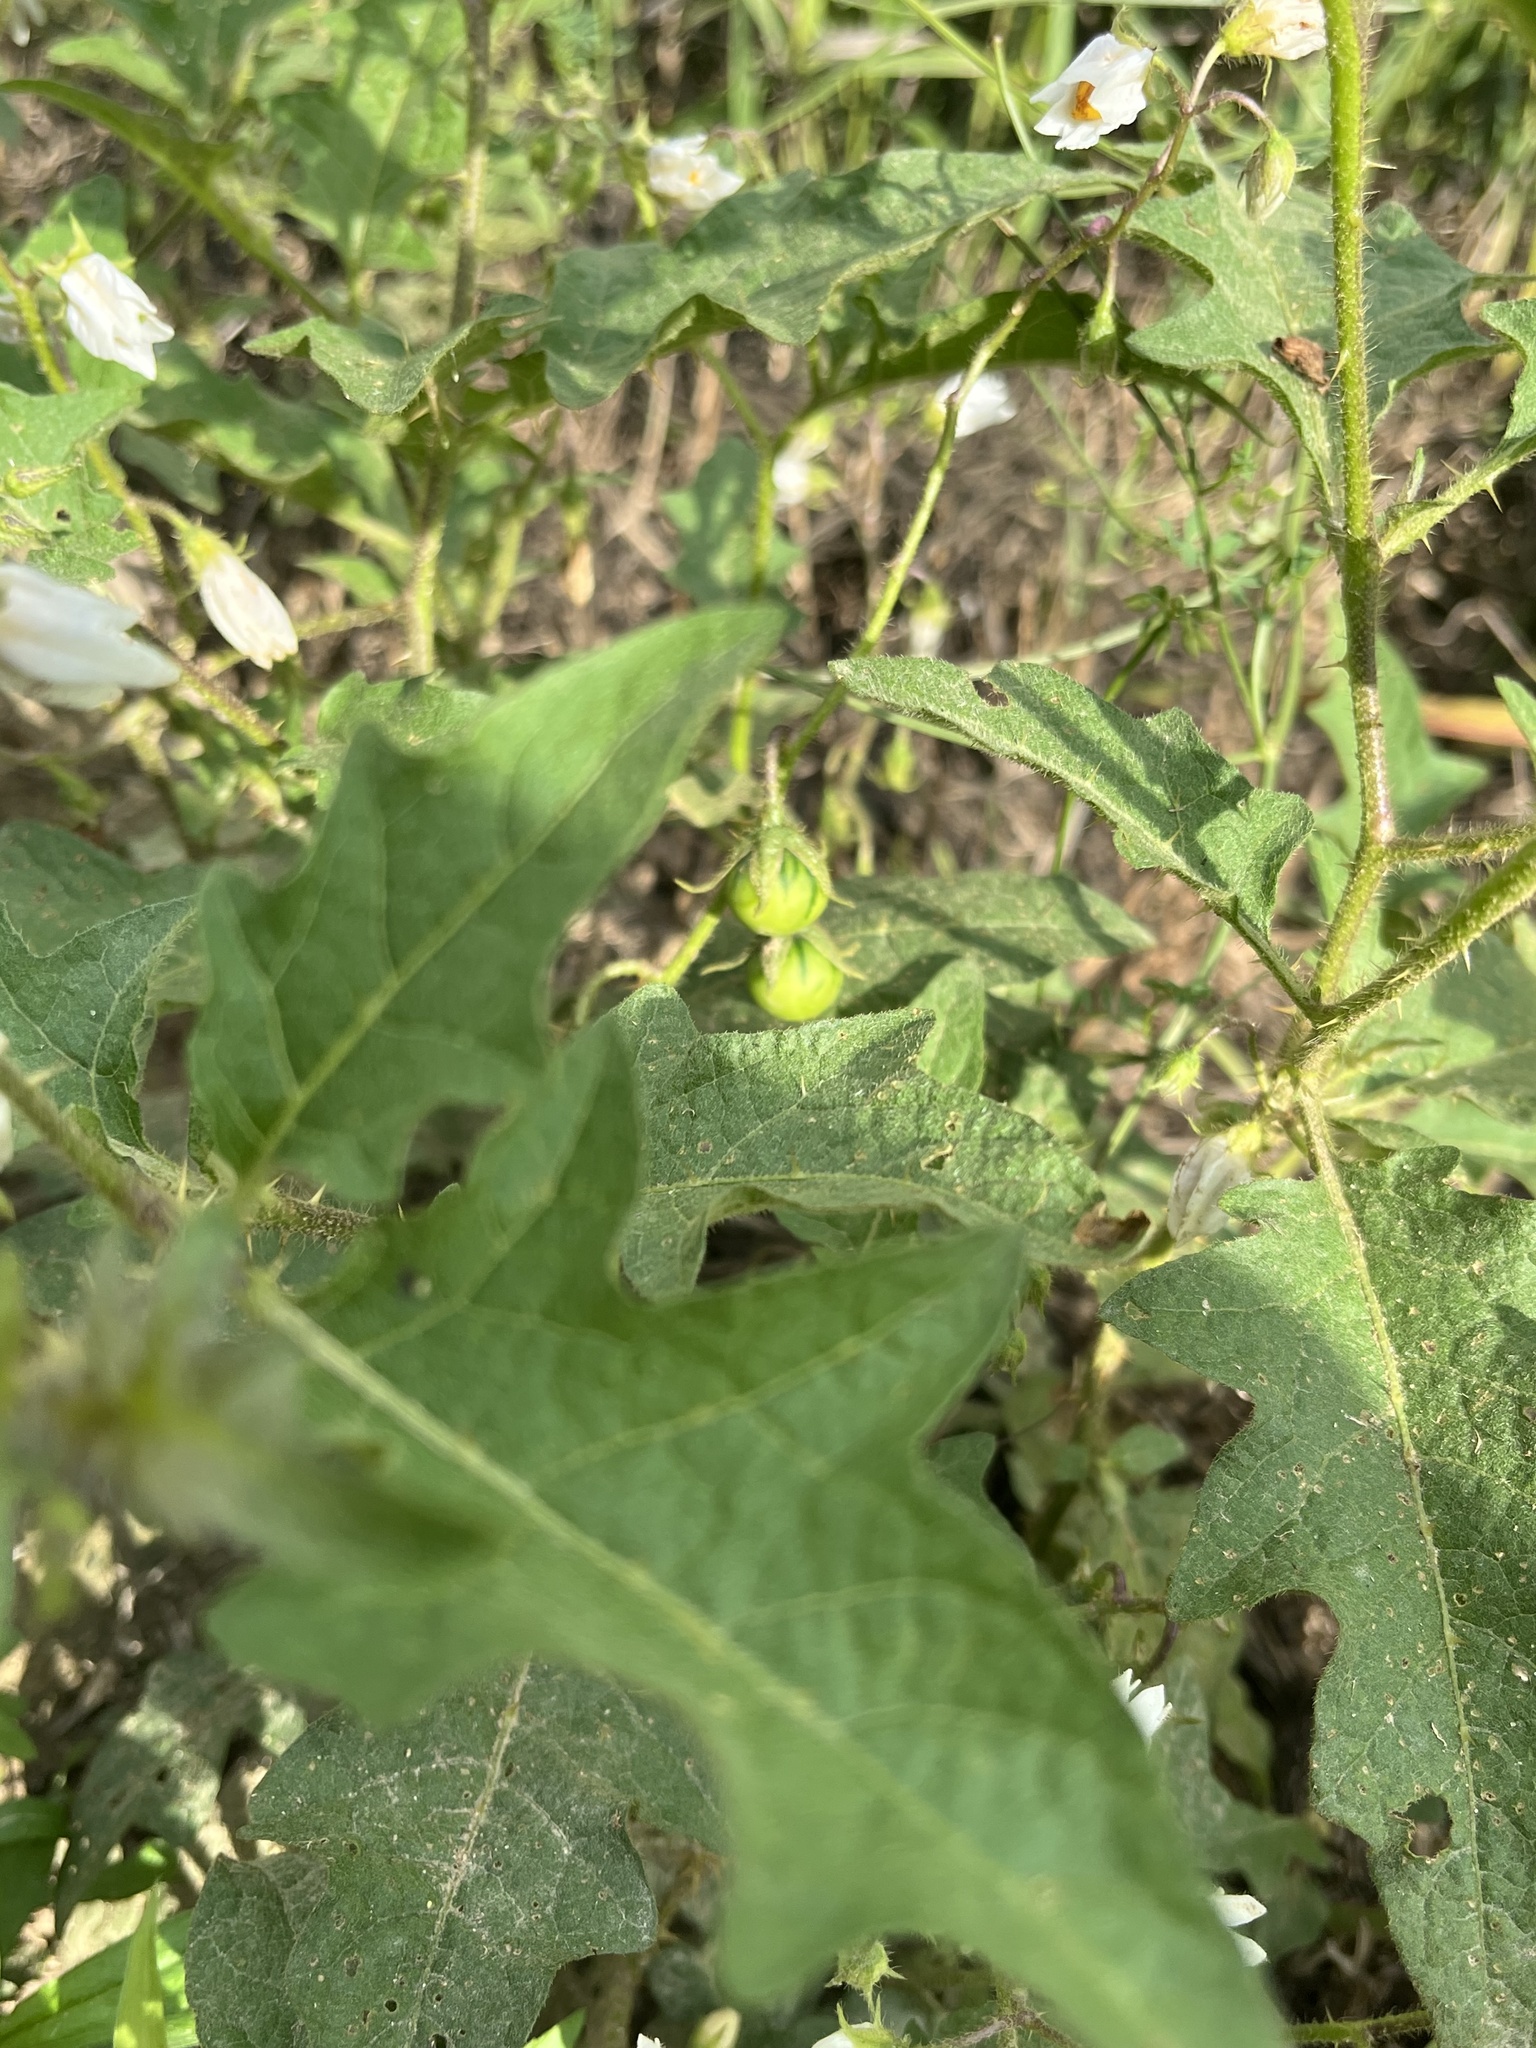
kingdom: Plantae
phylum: Tracheophyta
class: Magnoliopsida
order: Solanales
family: Solanaceae
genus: Solanum
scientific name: Solanum carolinense
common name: Horse-nettle
